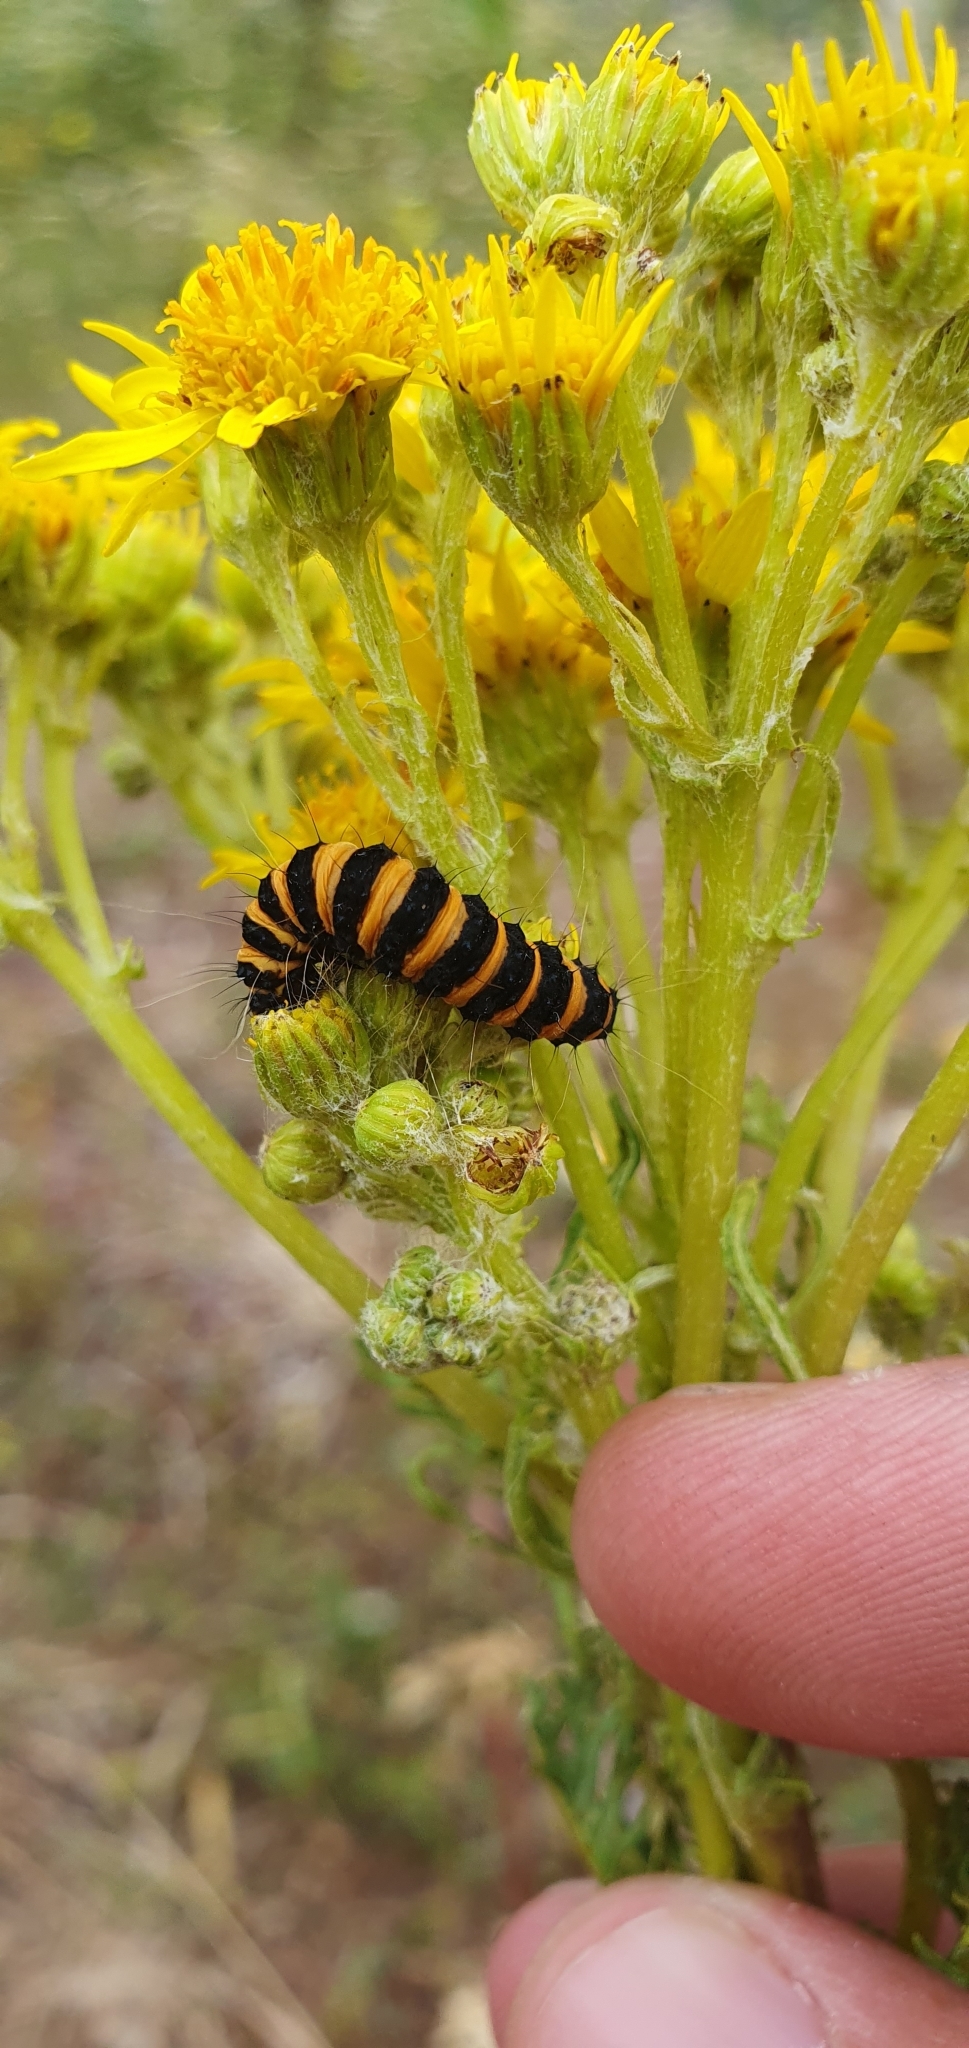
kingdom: Animalia
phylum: Arthropoda
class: Insecta
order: Lepidoptera
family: Erebidae
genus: Tyria
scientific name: Tyria jacobaeae
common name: Cinnabar
